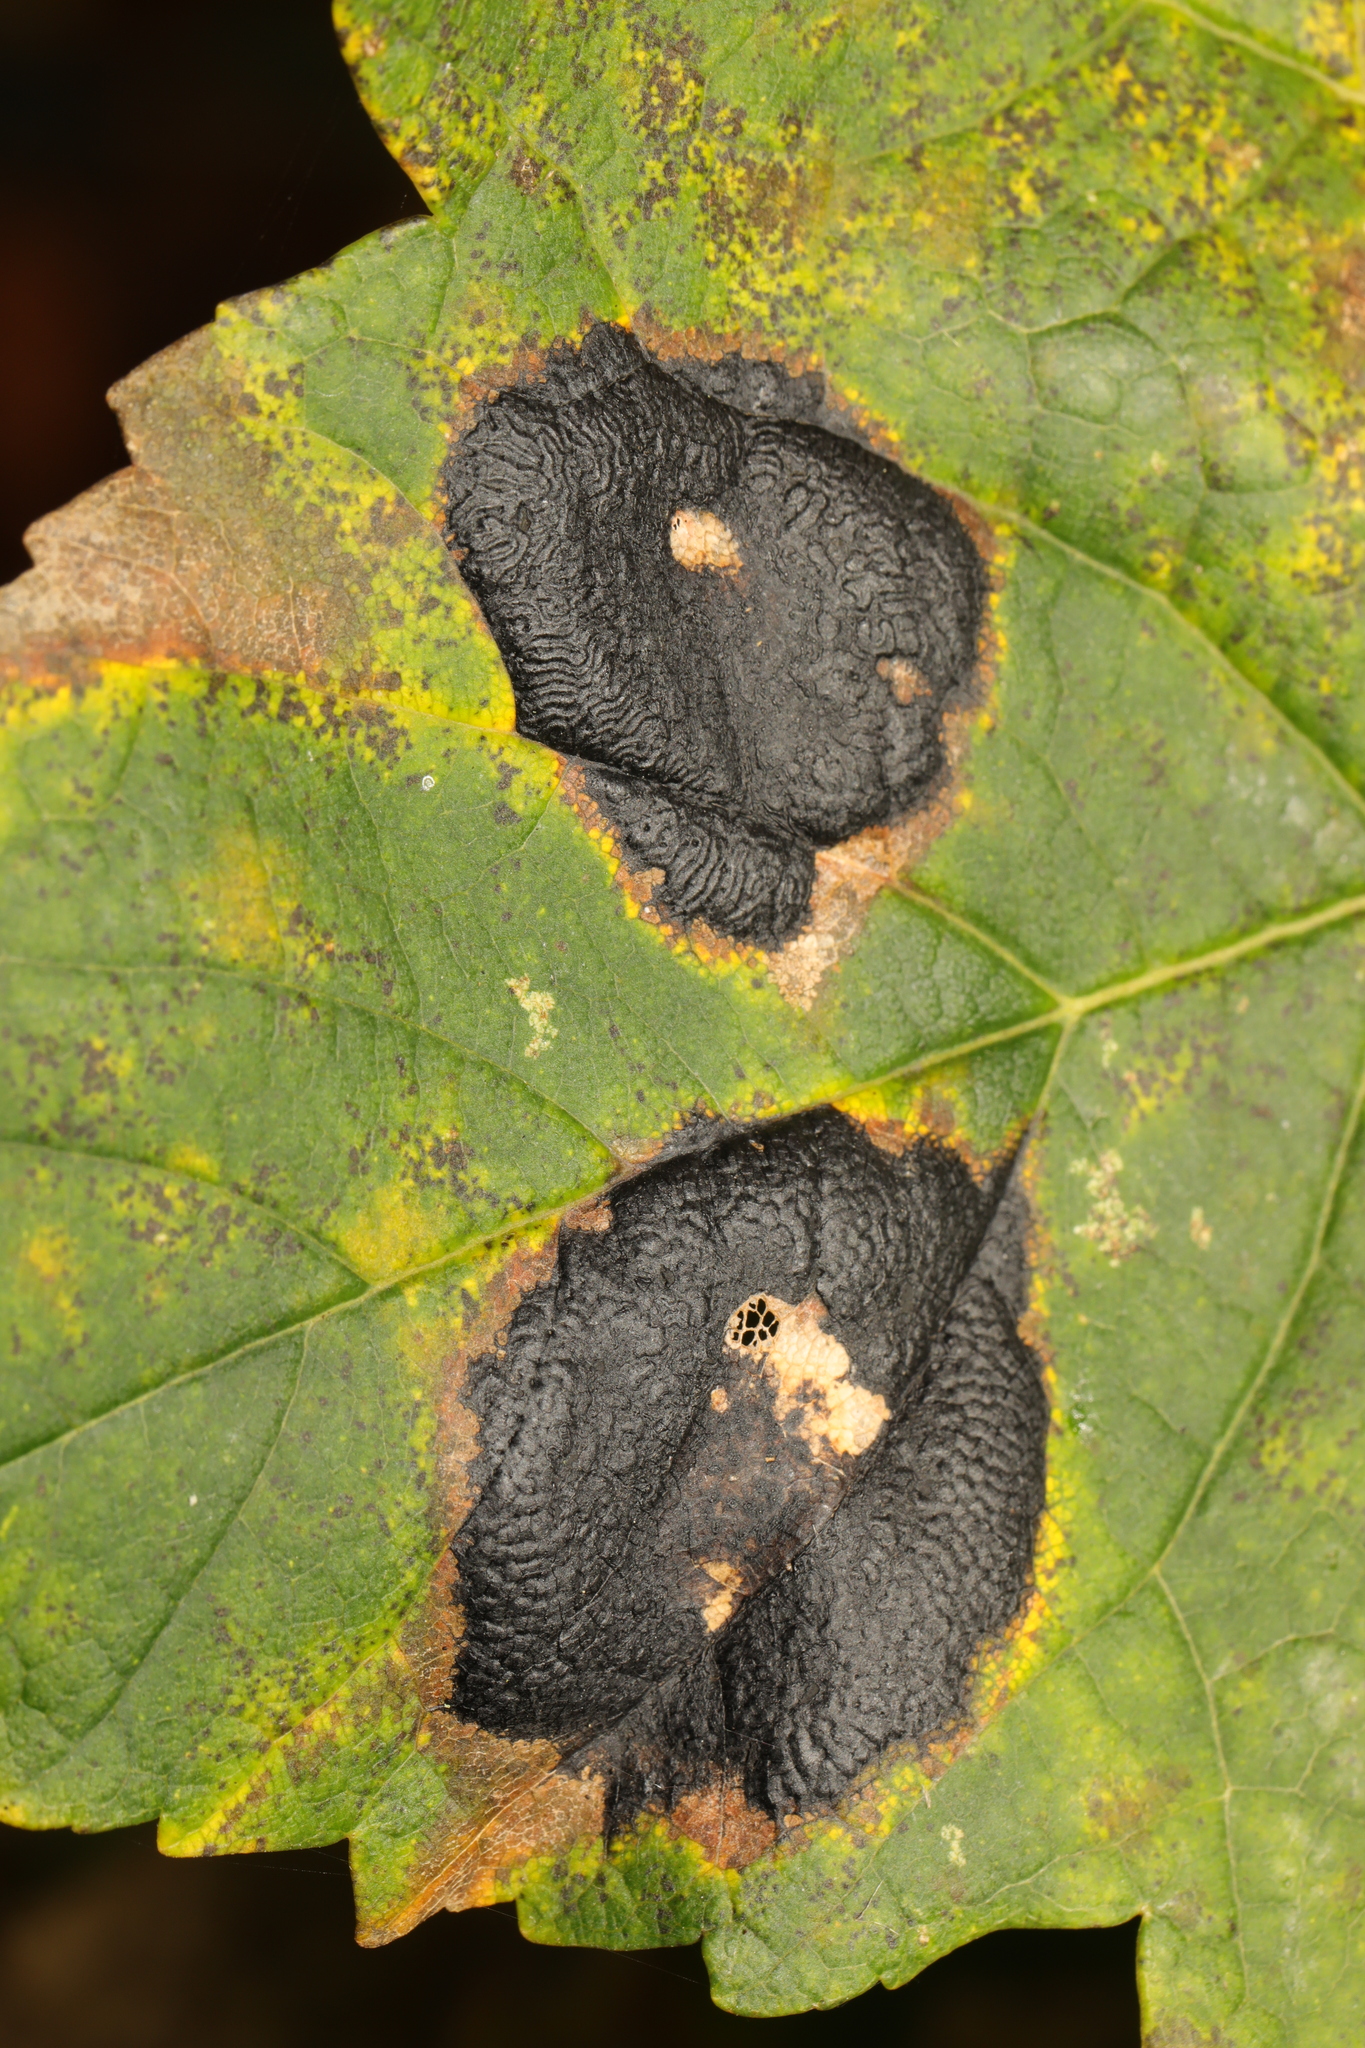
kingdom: Fungi
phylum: Ascomycota
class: Leotiomycetes
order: Rhytismatales
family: Rhytismataceae
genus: Rhytisma
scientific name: Rhytisma acerinum
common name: European tar spot
